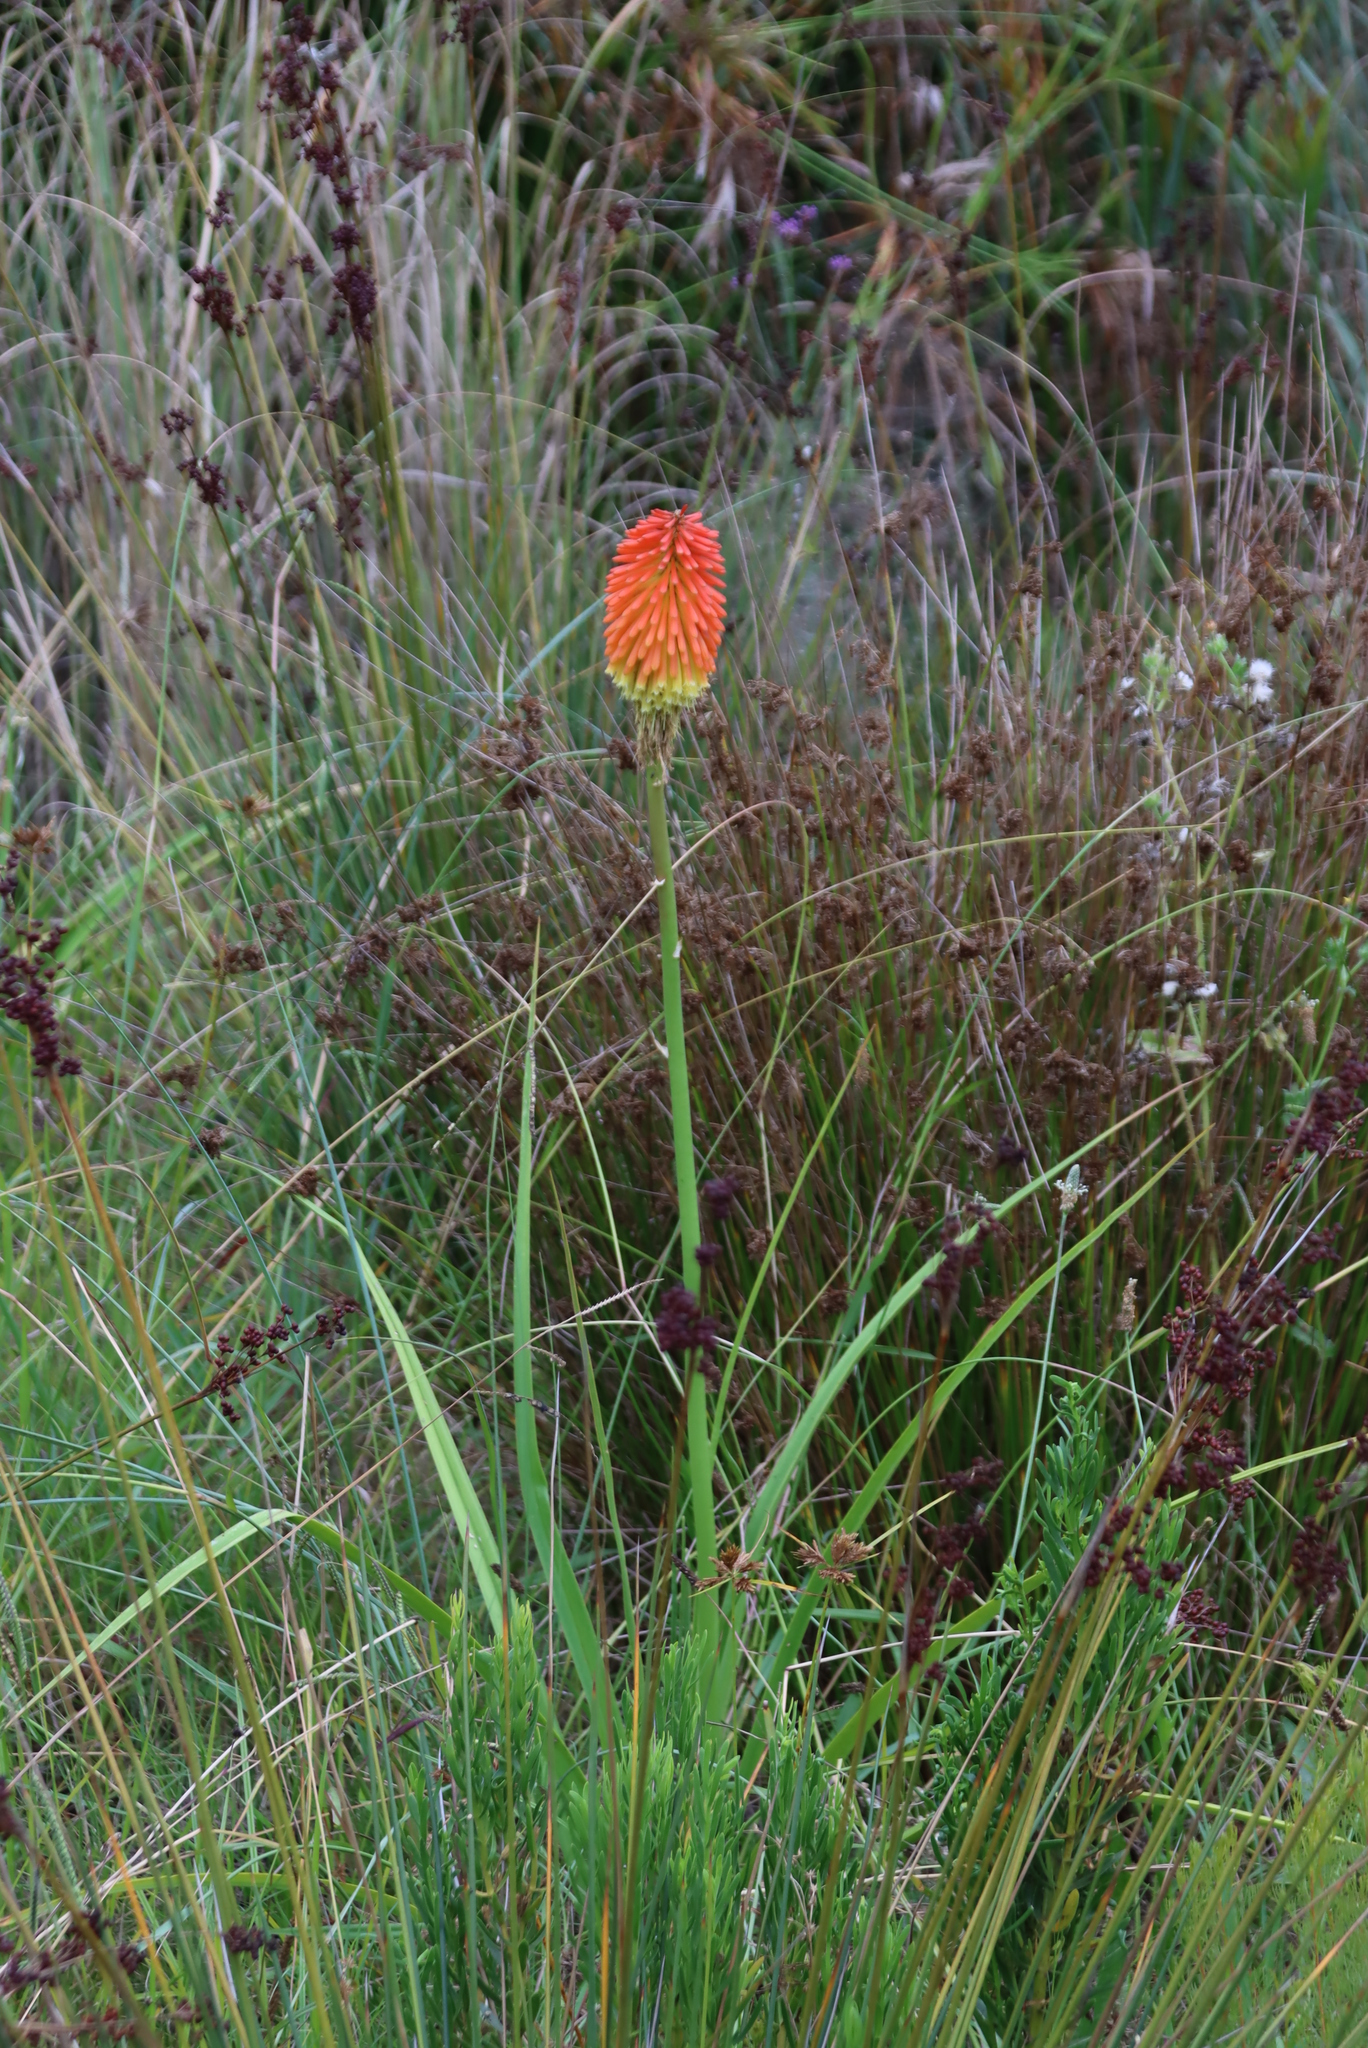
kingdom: Plantae
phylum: Tracheophyta
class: Liliopsida
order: Asparagales
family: Asphodelaceae
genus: Kniphofia
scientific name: Kniphofia uvaria
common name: Red-hot-poker
